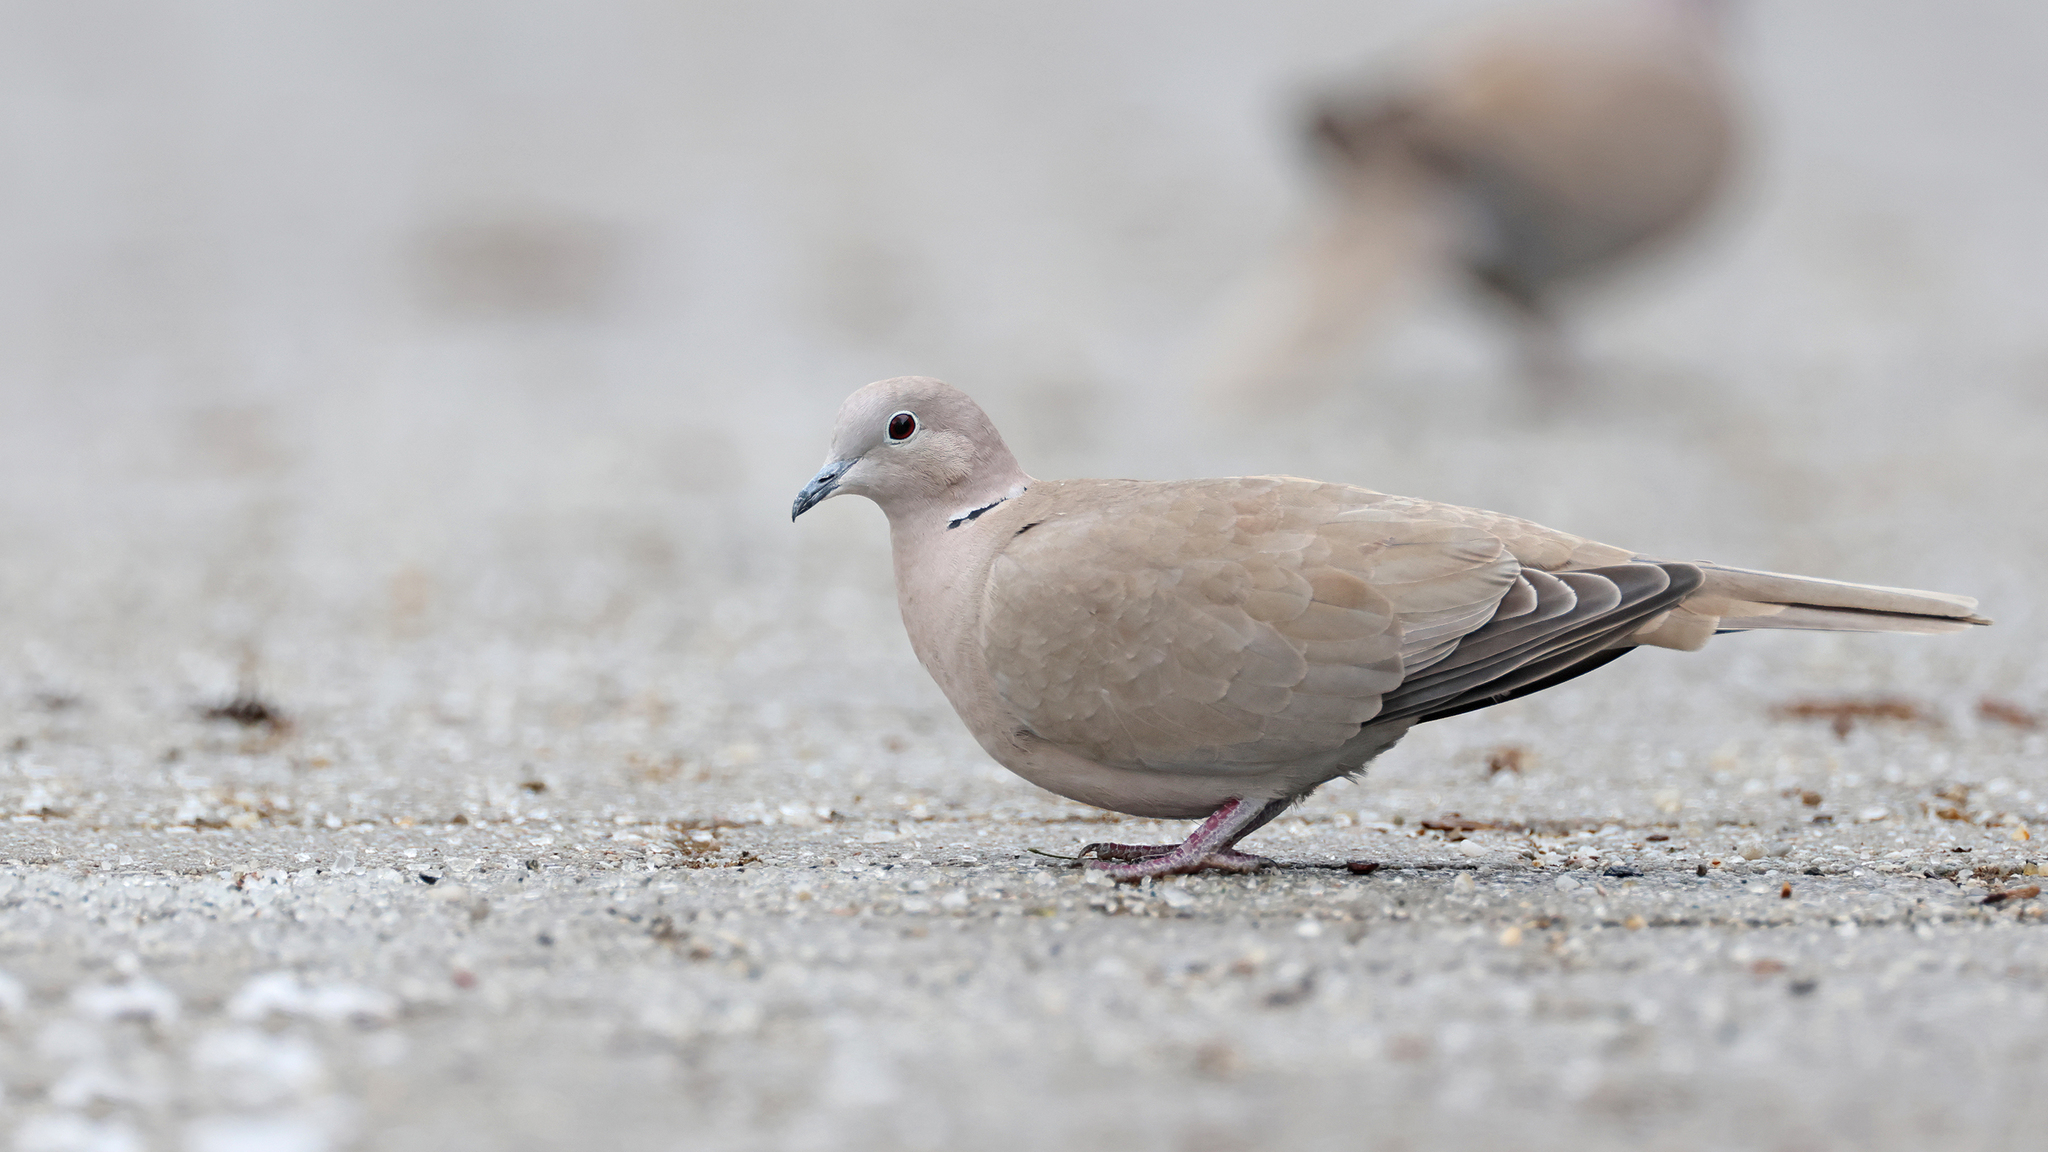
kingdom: Animalia
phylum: Chordata
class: Aves
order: Columbiformes
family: Columbidae
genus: Streptopelia
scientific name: Streptopelia decaocto
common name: Eurasian collared dove
